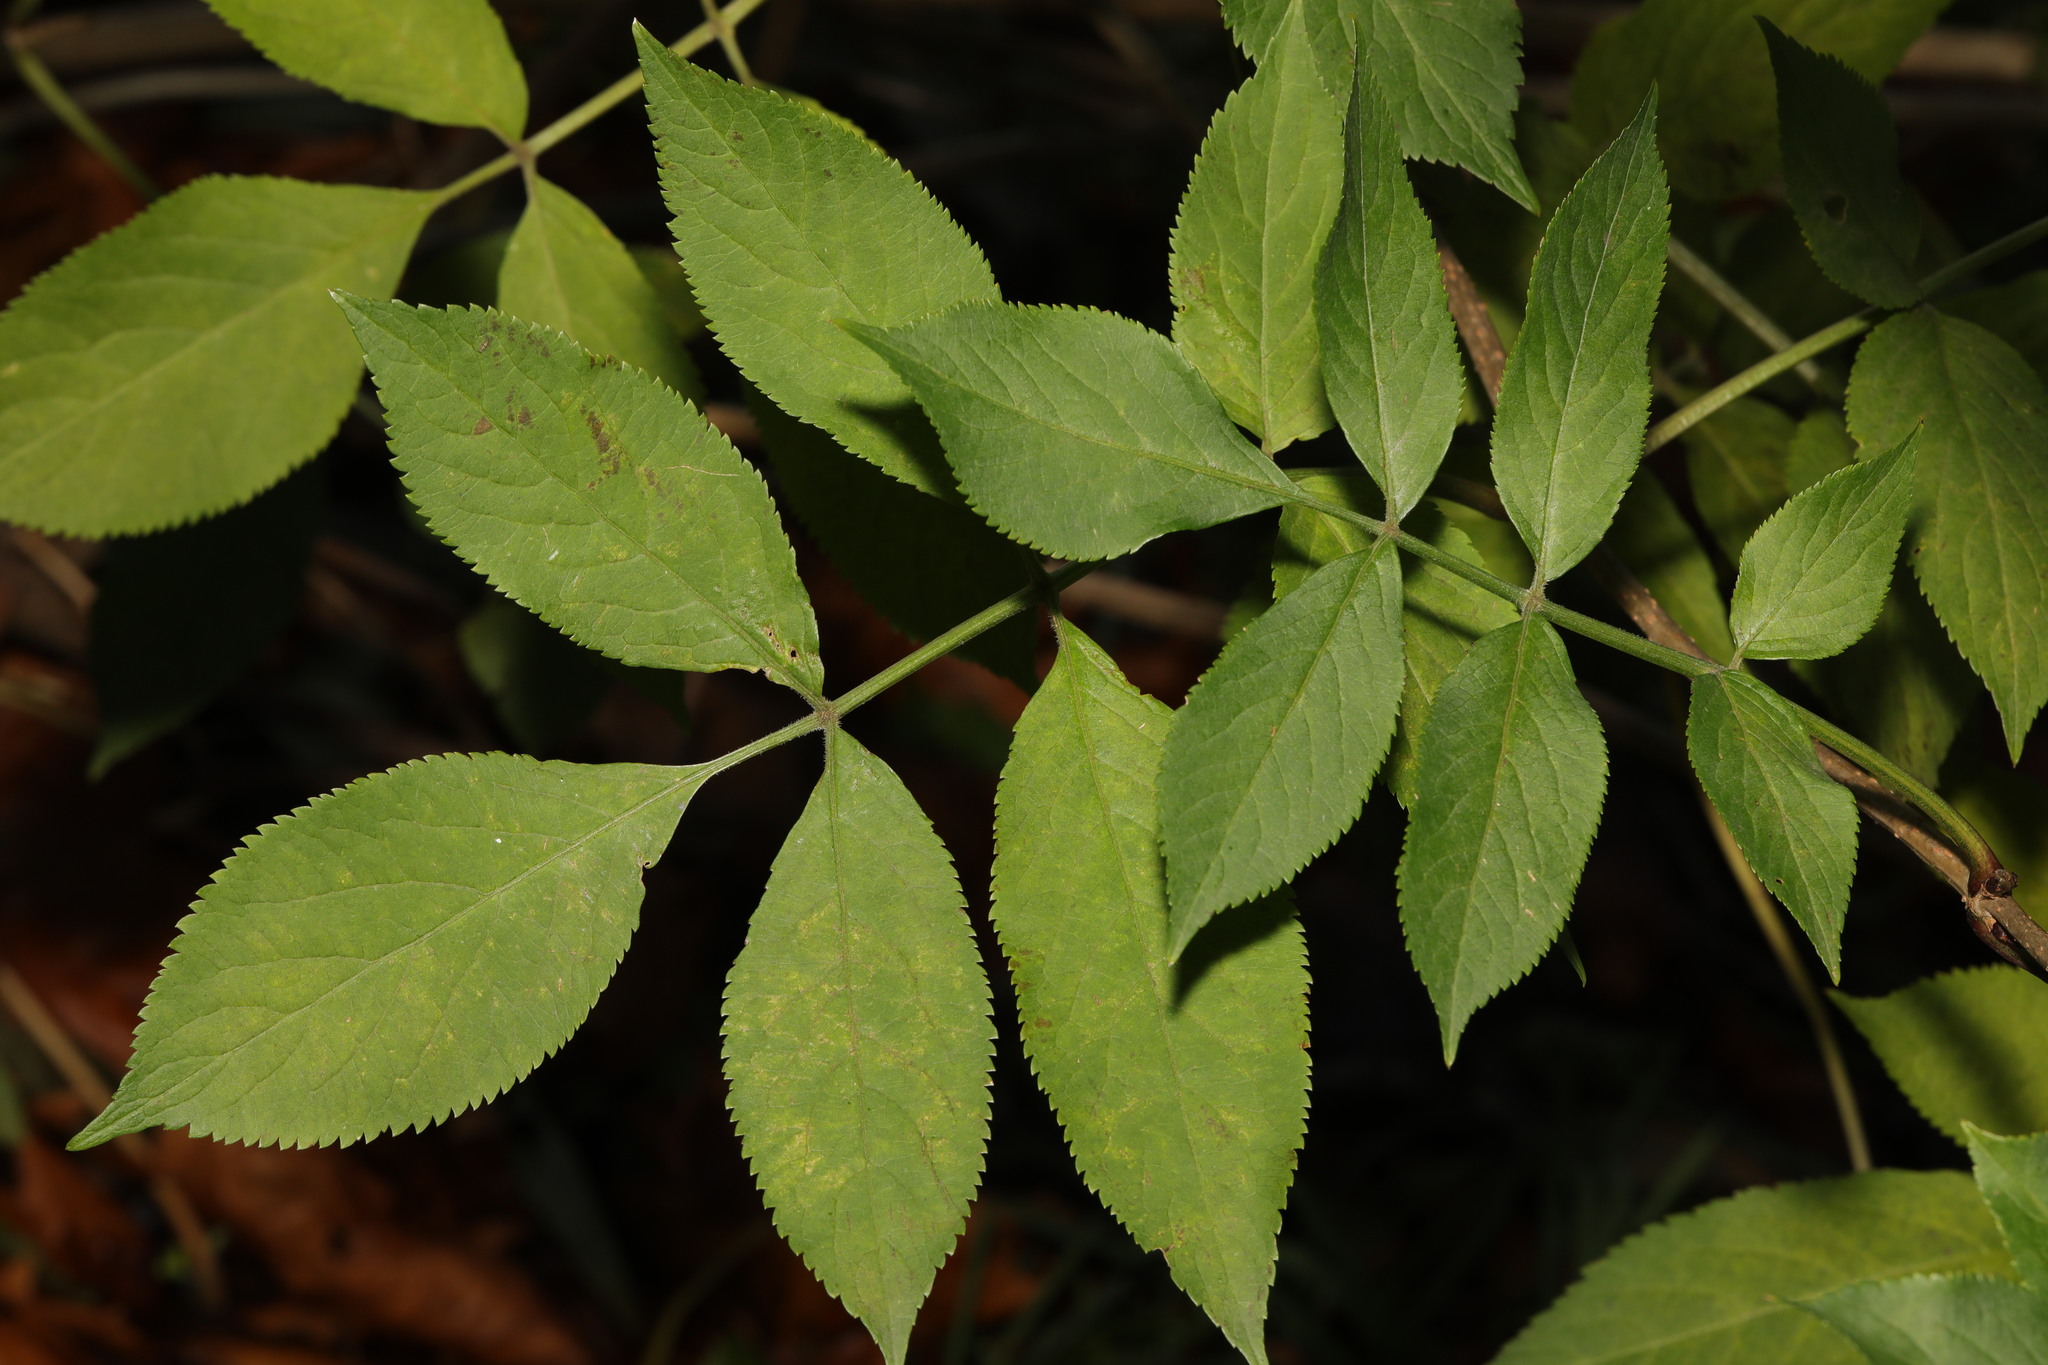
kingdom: Plantae
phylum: Tracheophyta
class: Magnoliopsida
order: Dipsacales
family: Viburnaceae
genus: Sambucus
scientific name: Sambucus nigra
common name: Elder
